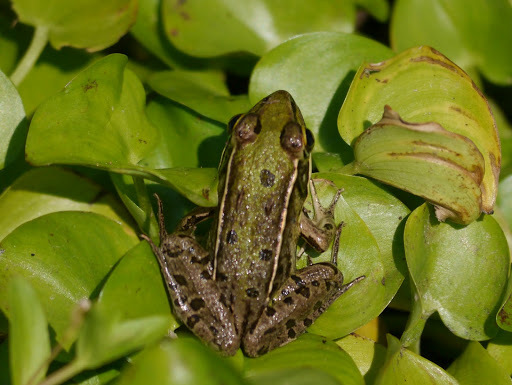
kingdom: Animalia
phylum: Chordata
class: Amphibia
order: Anura
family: Ranidae
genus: Lithobates
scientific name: Lithobates sphenocephalus
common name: Southern leopard frog
